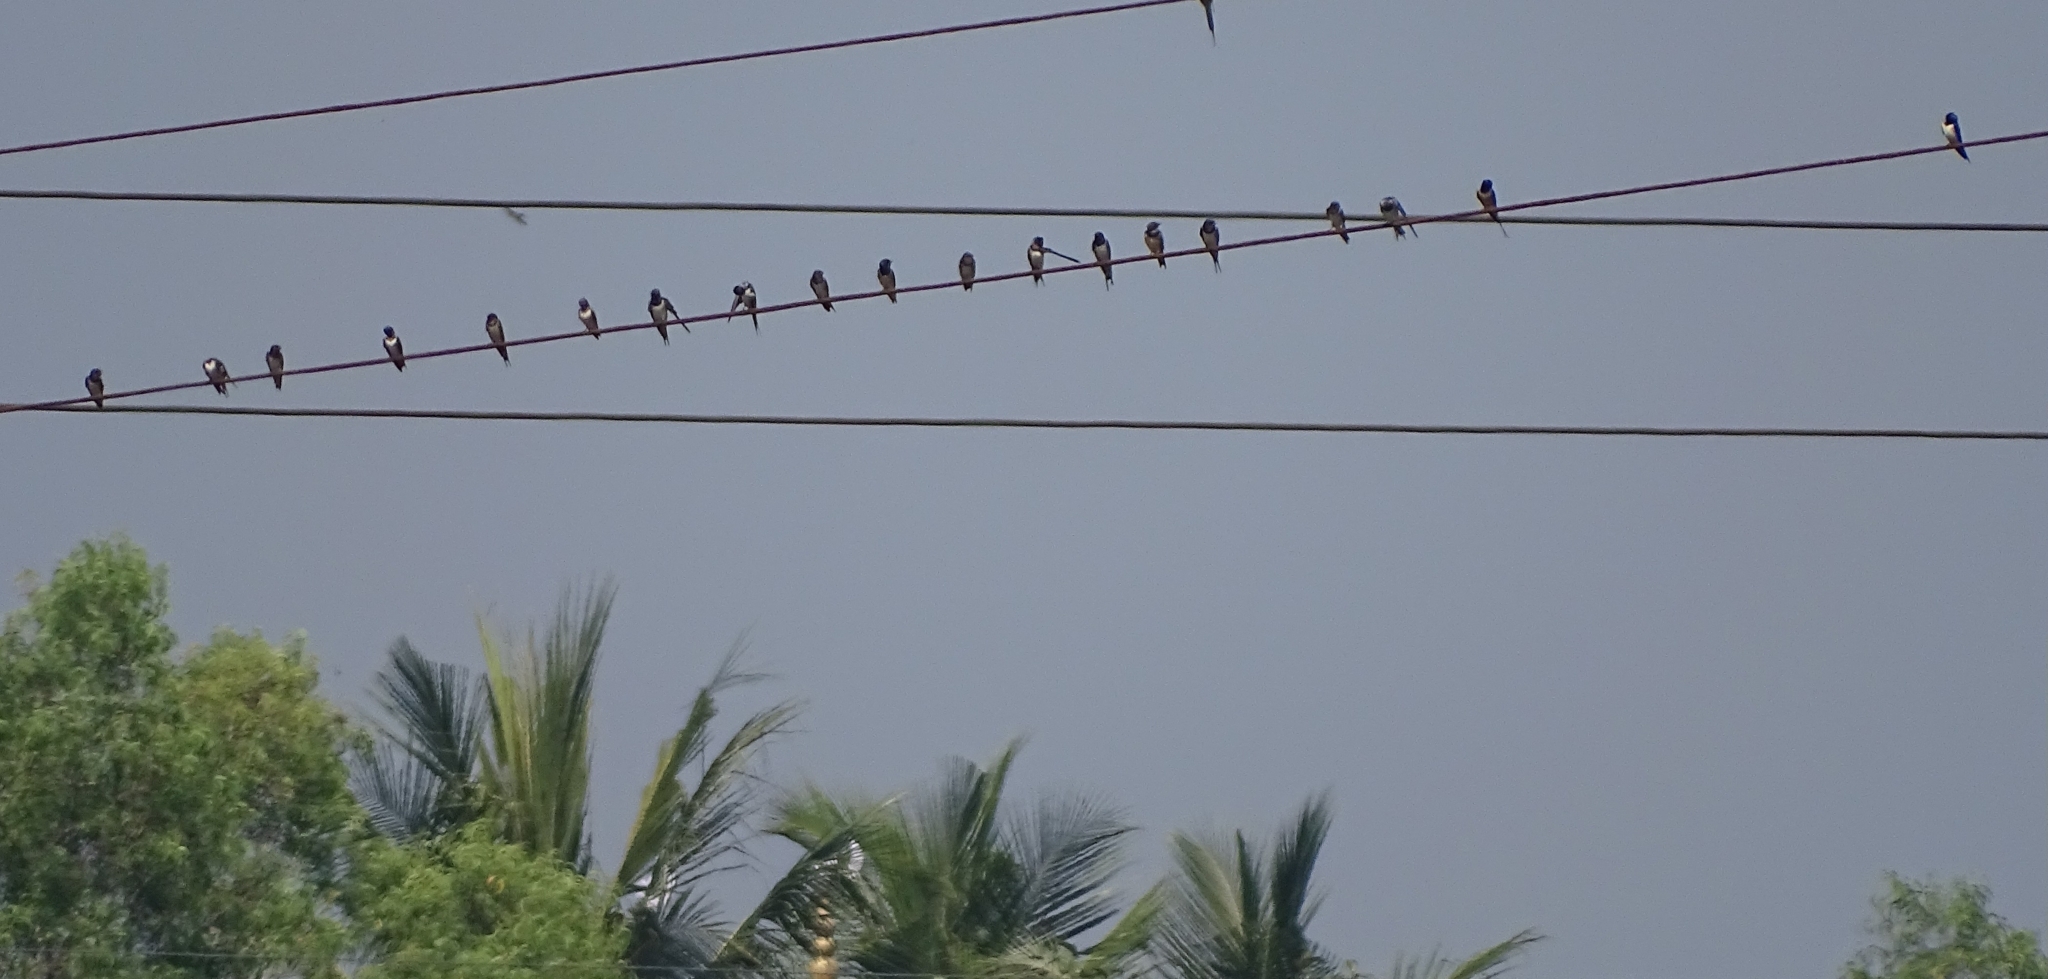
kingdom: Animalia
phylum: Chordata
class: Aves
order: Passeriformes
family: Hirundinidae
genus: Hirundo
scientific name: Hirundo rustica
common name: Barn swallow
